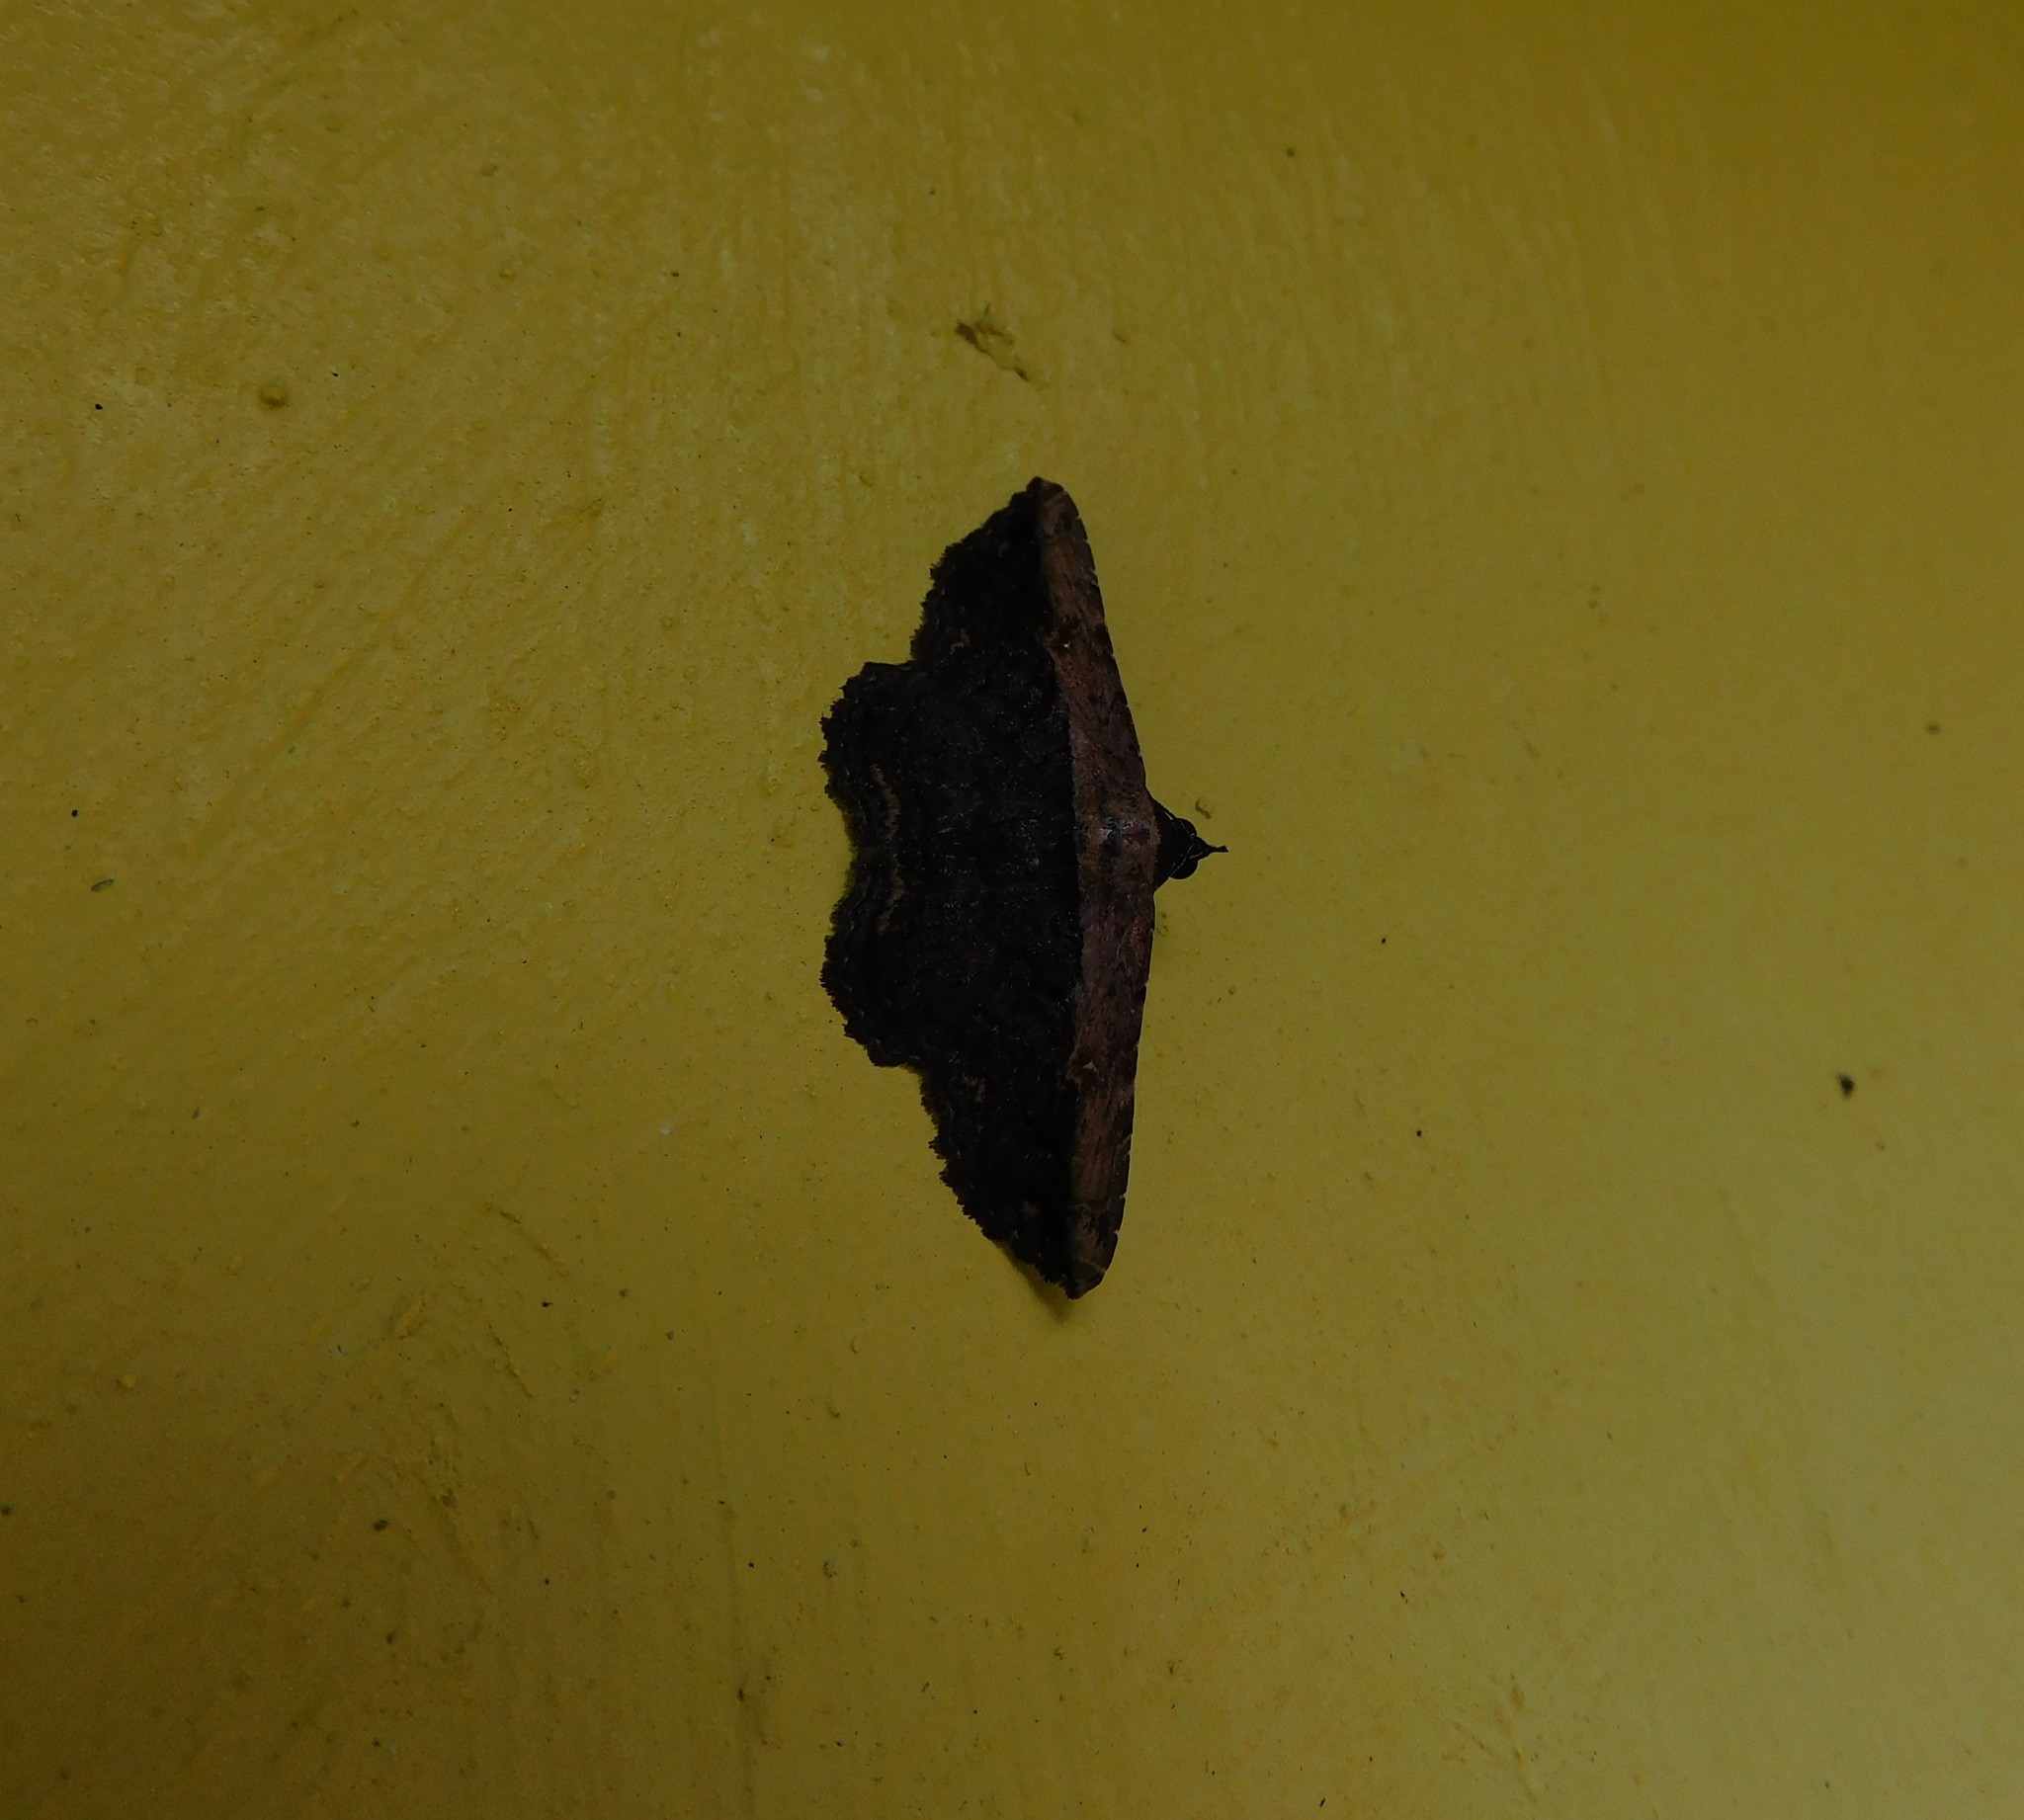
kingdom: Animalia
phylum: Arthropoda
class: Insecta
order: Lepidoptera
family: Erebidae
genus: Selenisa
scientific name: Selenisa sueroides
